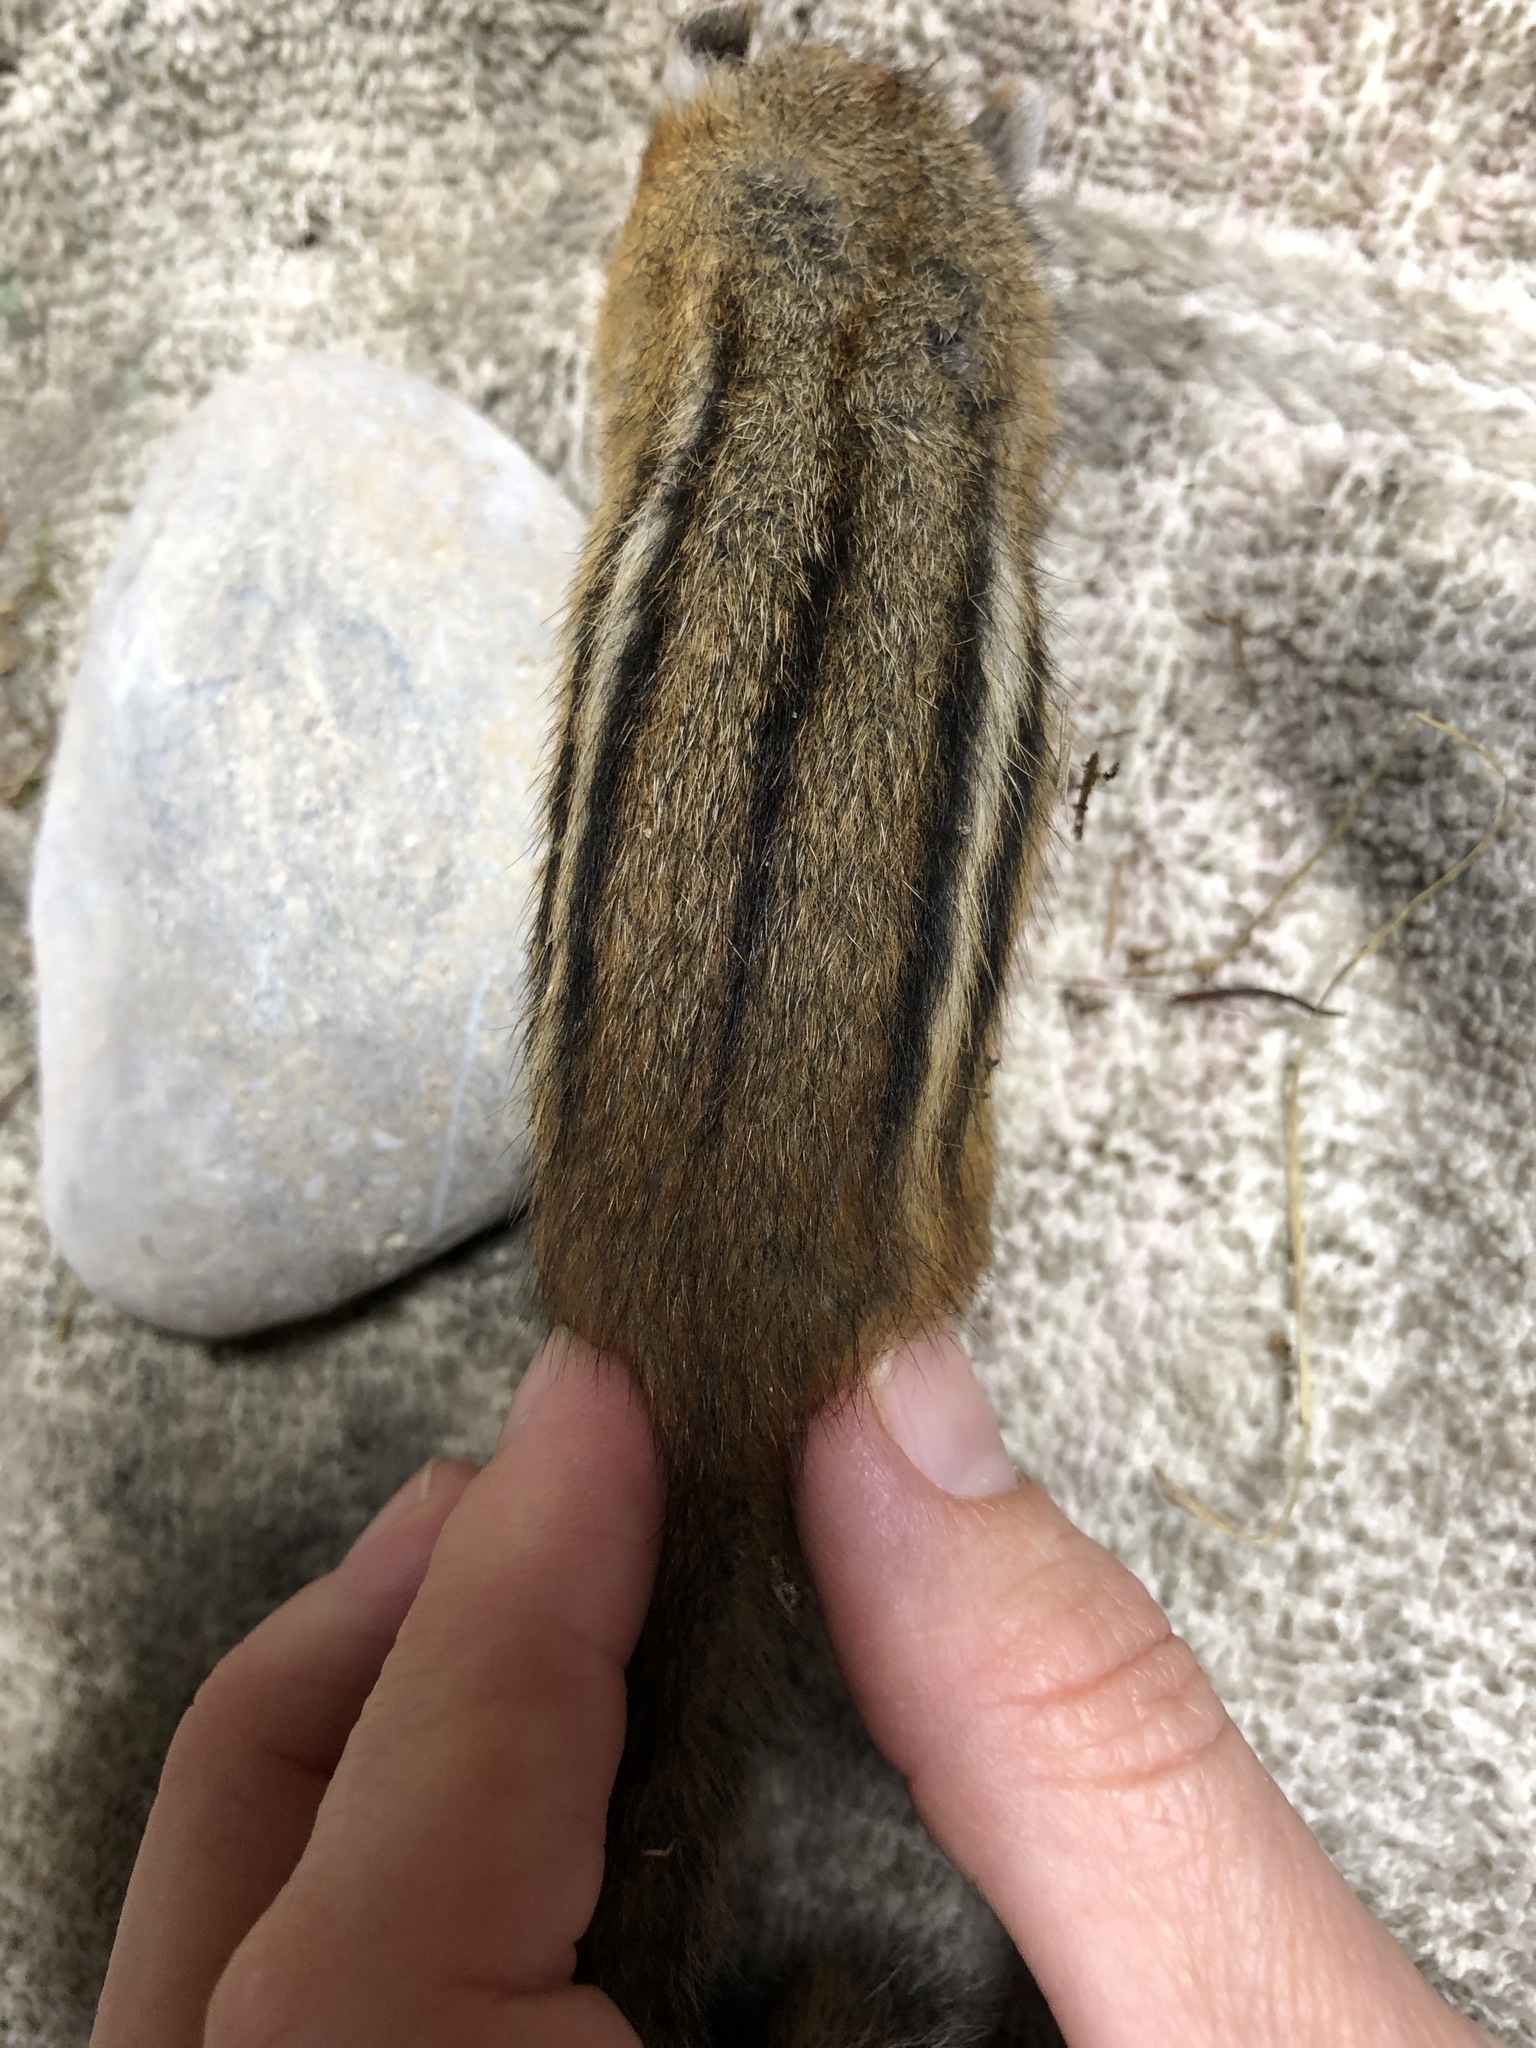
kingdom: Animalia
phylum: Chordata
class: Mammalia
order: Rodentia
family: Sciuridae
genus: Tamias
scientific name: Tamias striatus
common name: Eastern chipmunk
